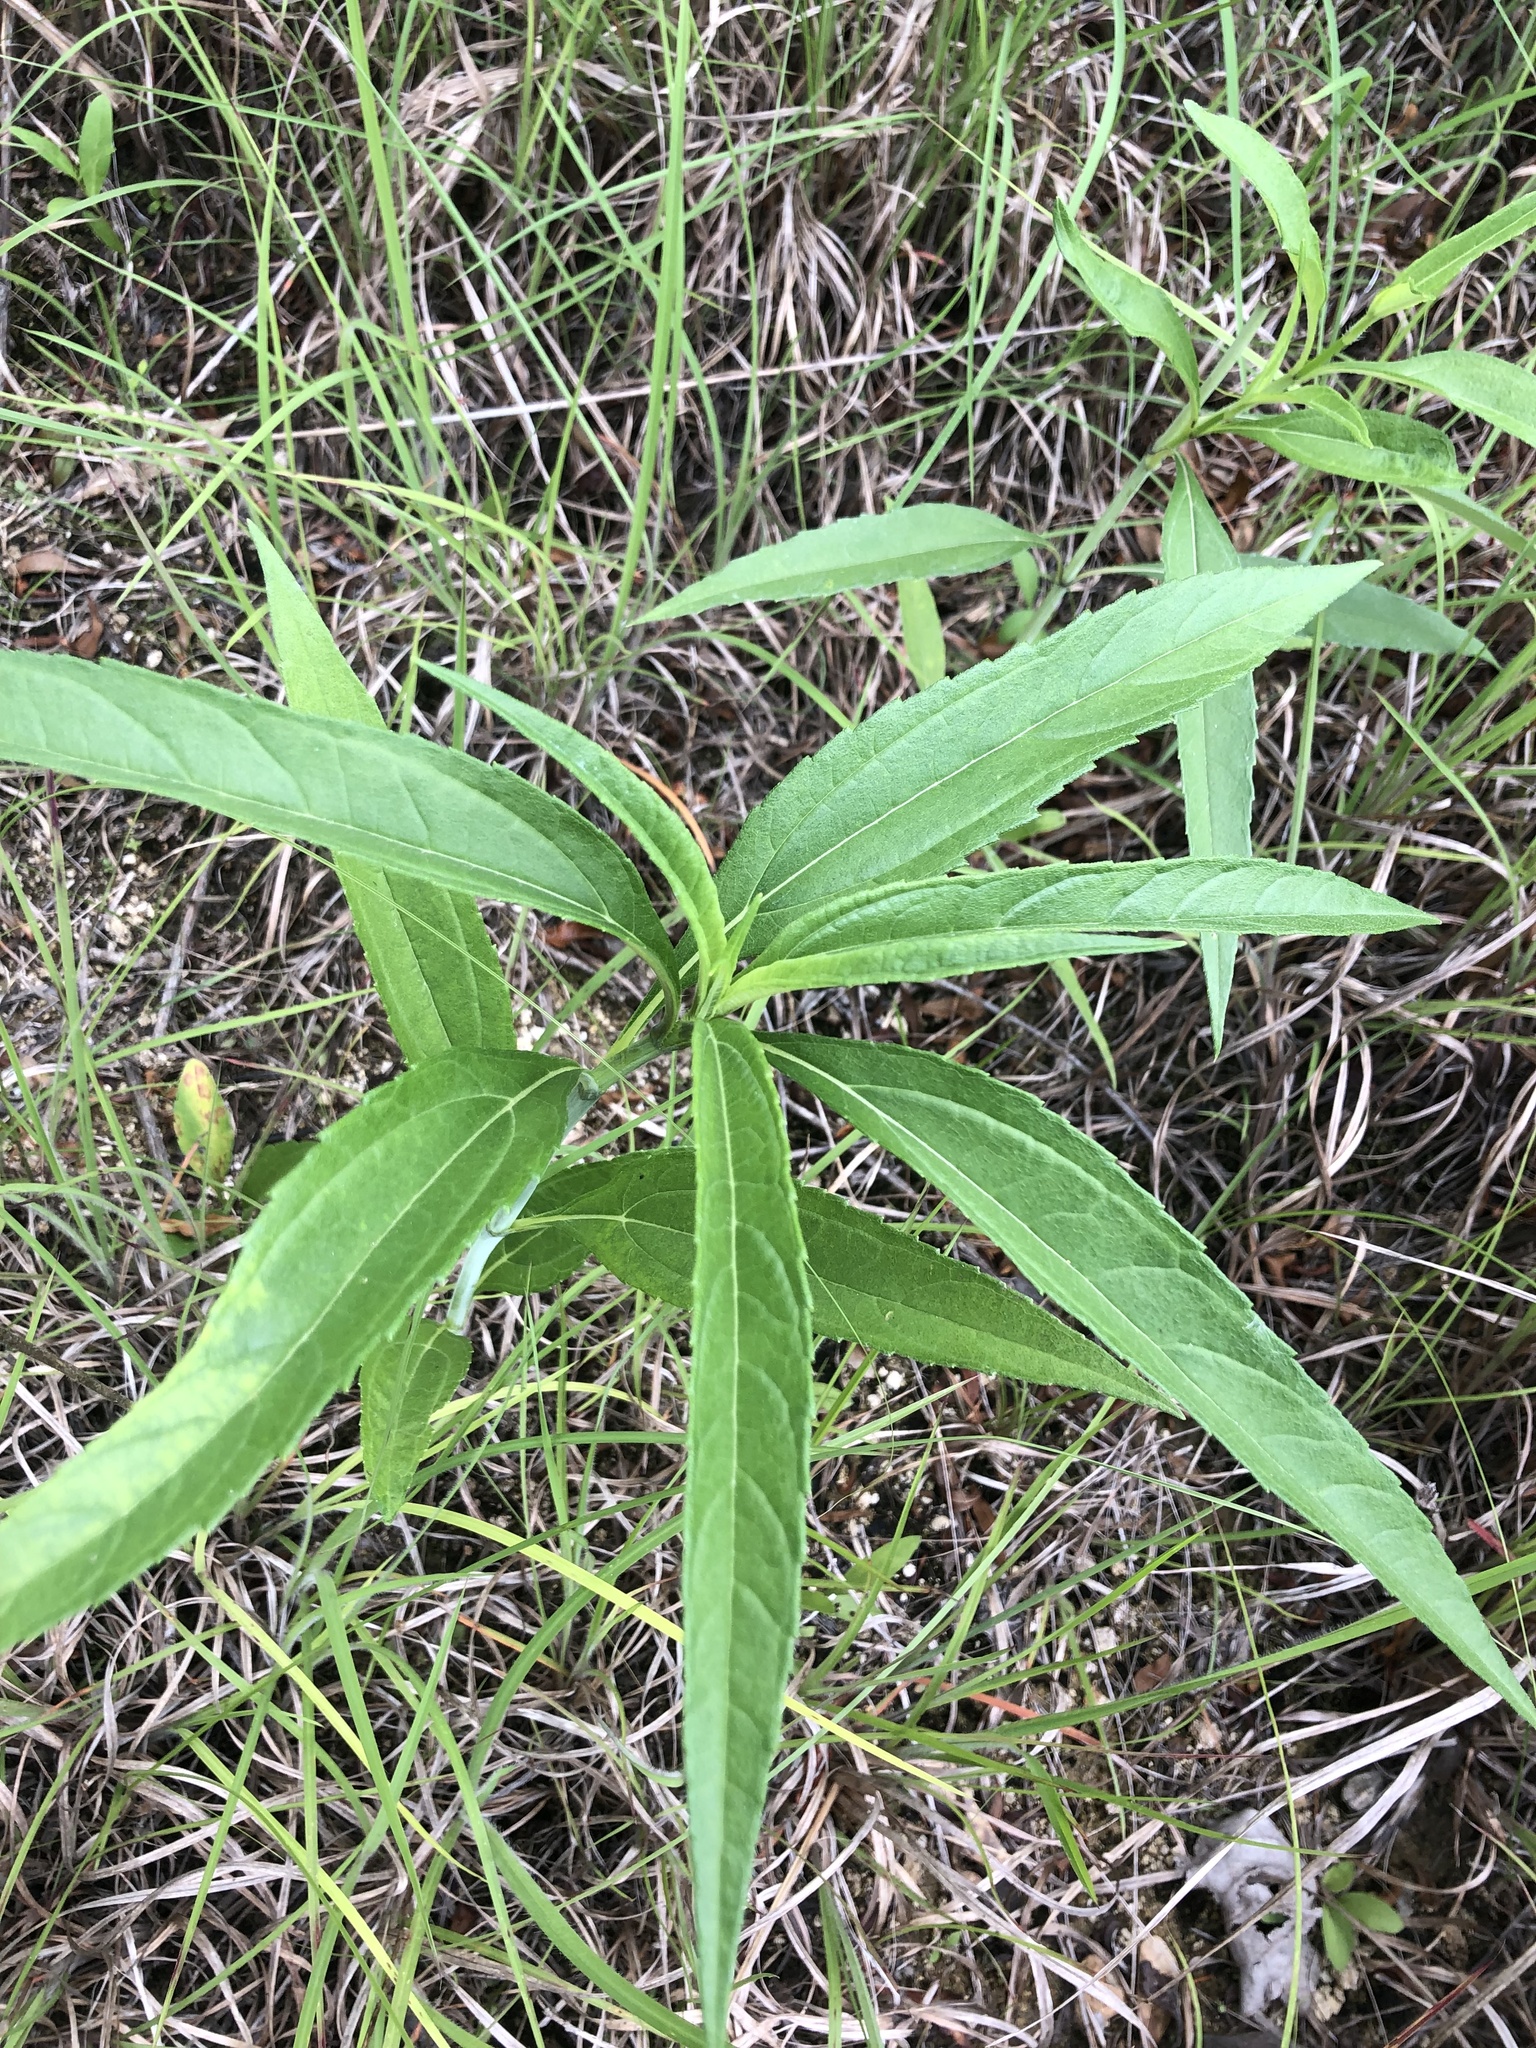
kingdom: Plantae
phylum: Tracheophyta
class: Magnoliopsida
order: Asterales
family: Asteraceae
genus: Helianthus
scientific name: Helianthus grosseserratus
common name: Sawtooth sunflower
